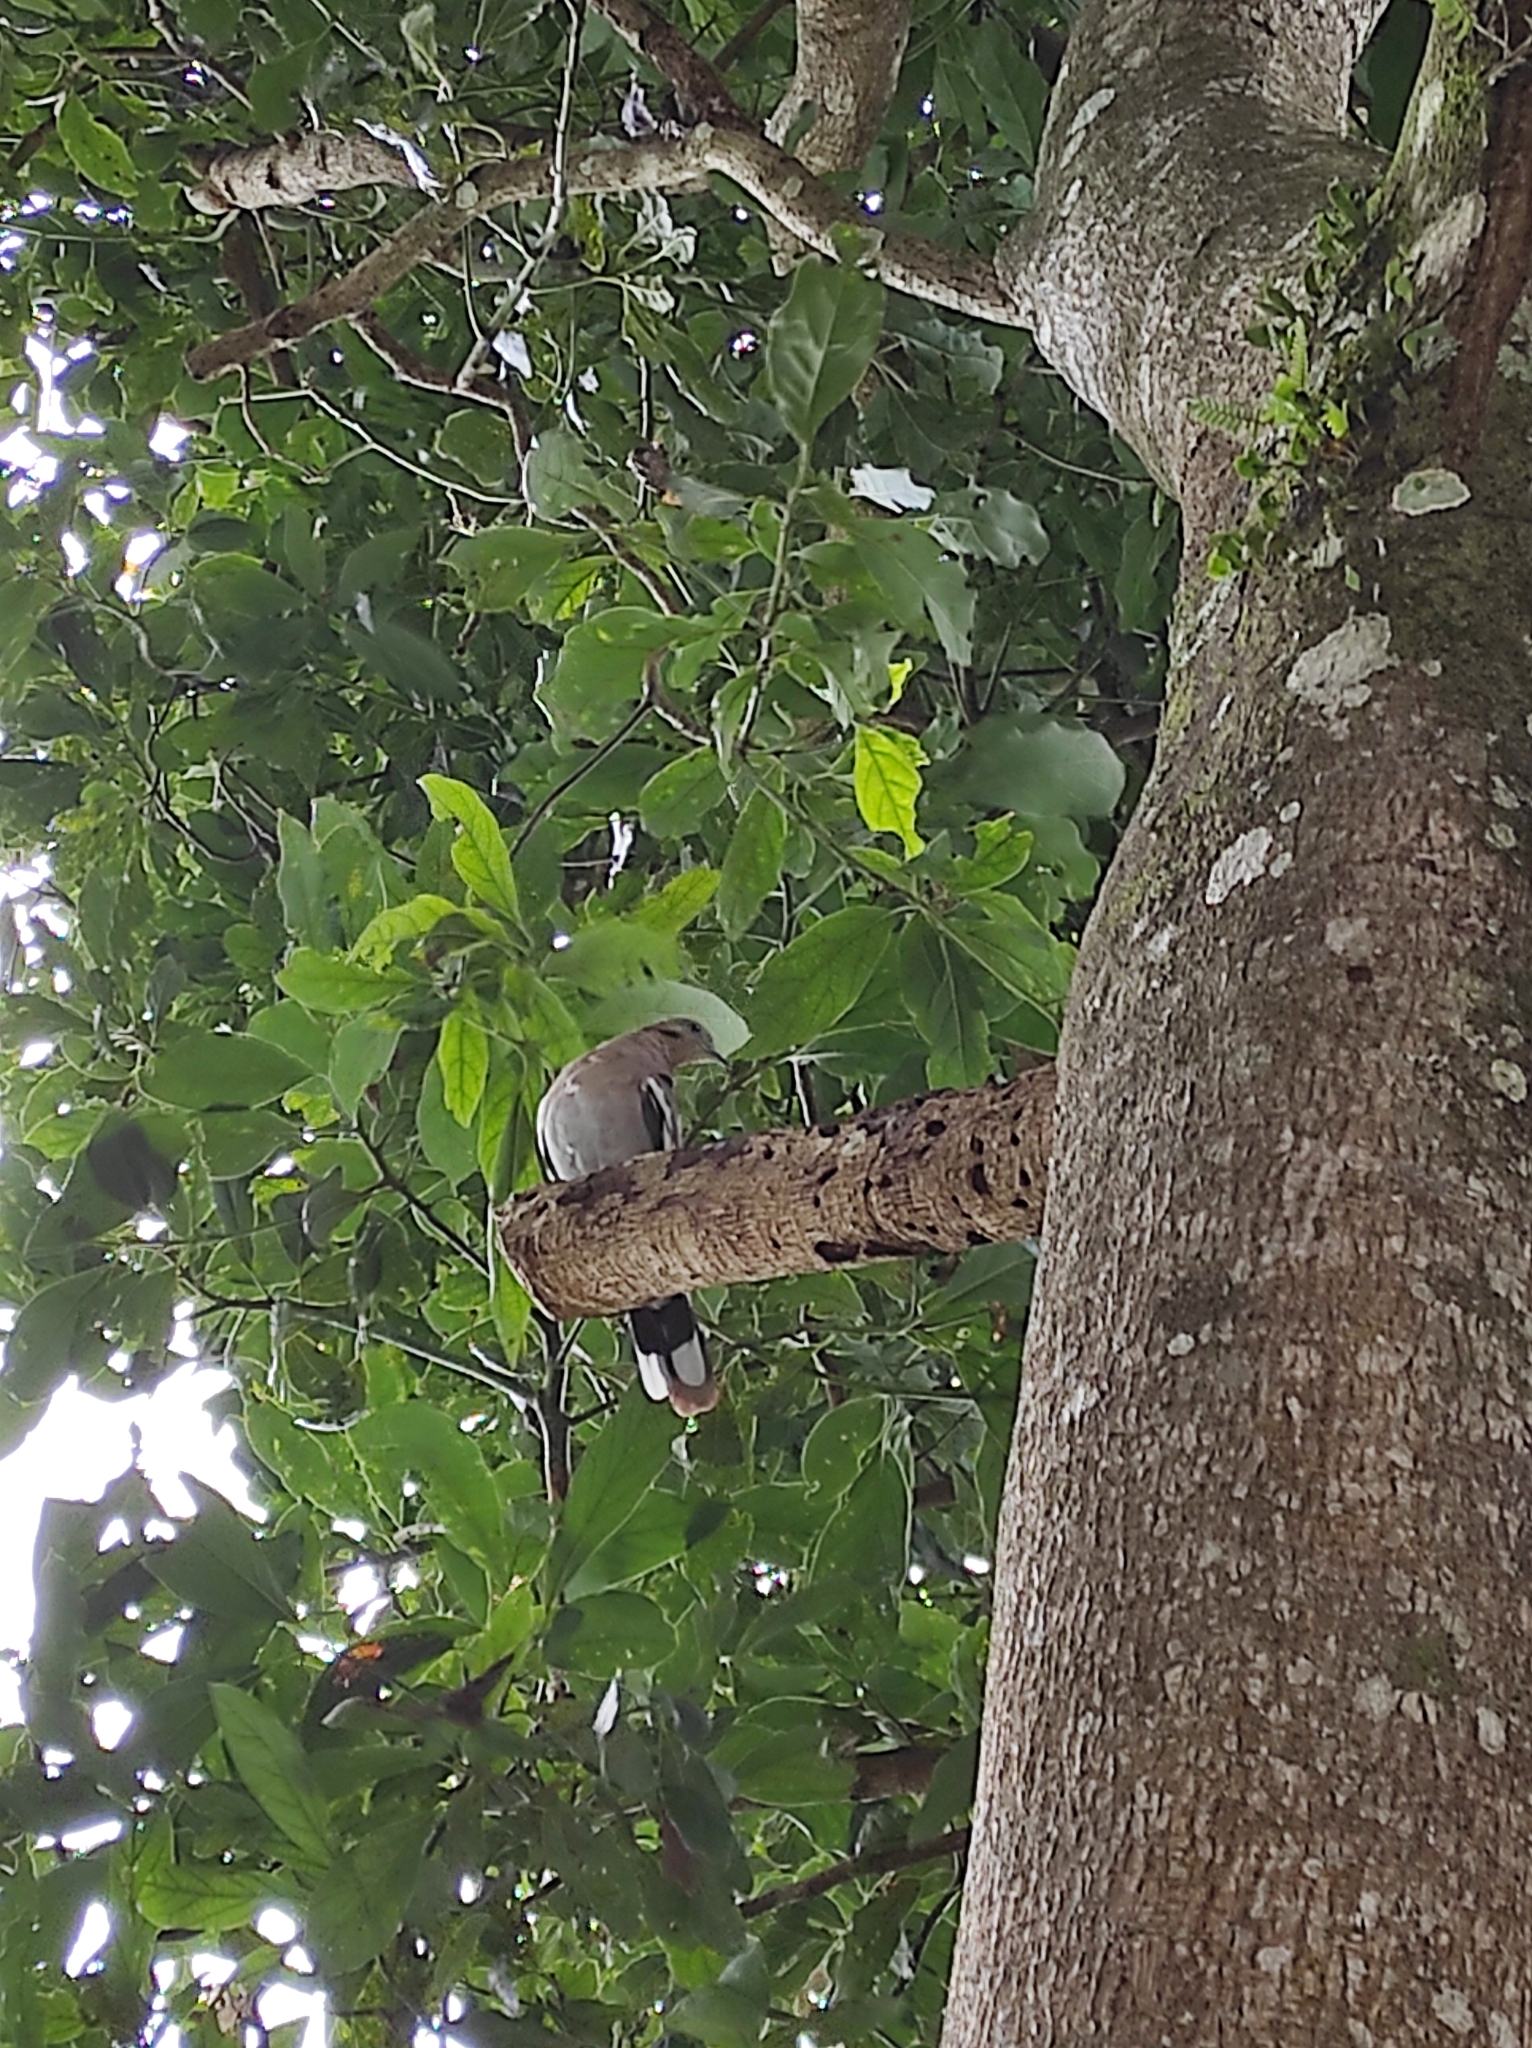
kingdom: Animalia
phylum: Chordata
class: Aves
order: Columbiformes
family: Columbidae
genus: Zenaida
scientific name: Zenaida asiatica
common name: White-winged dove
